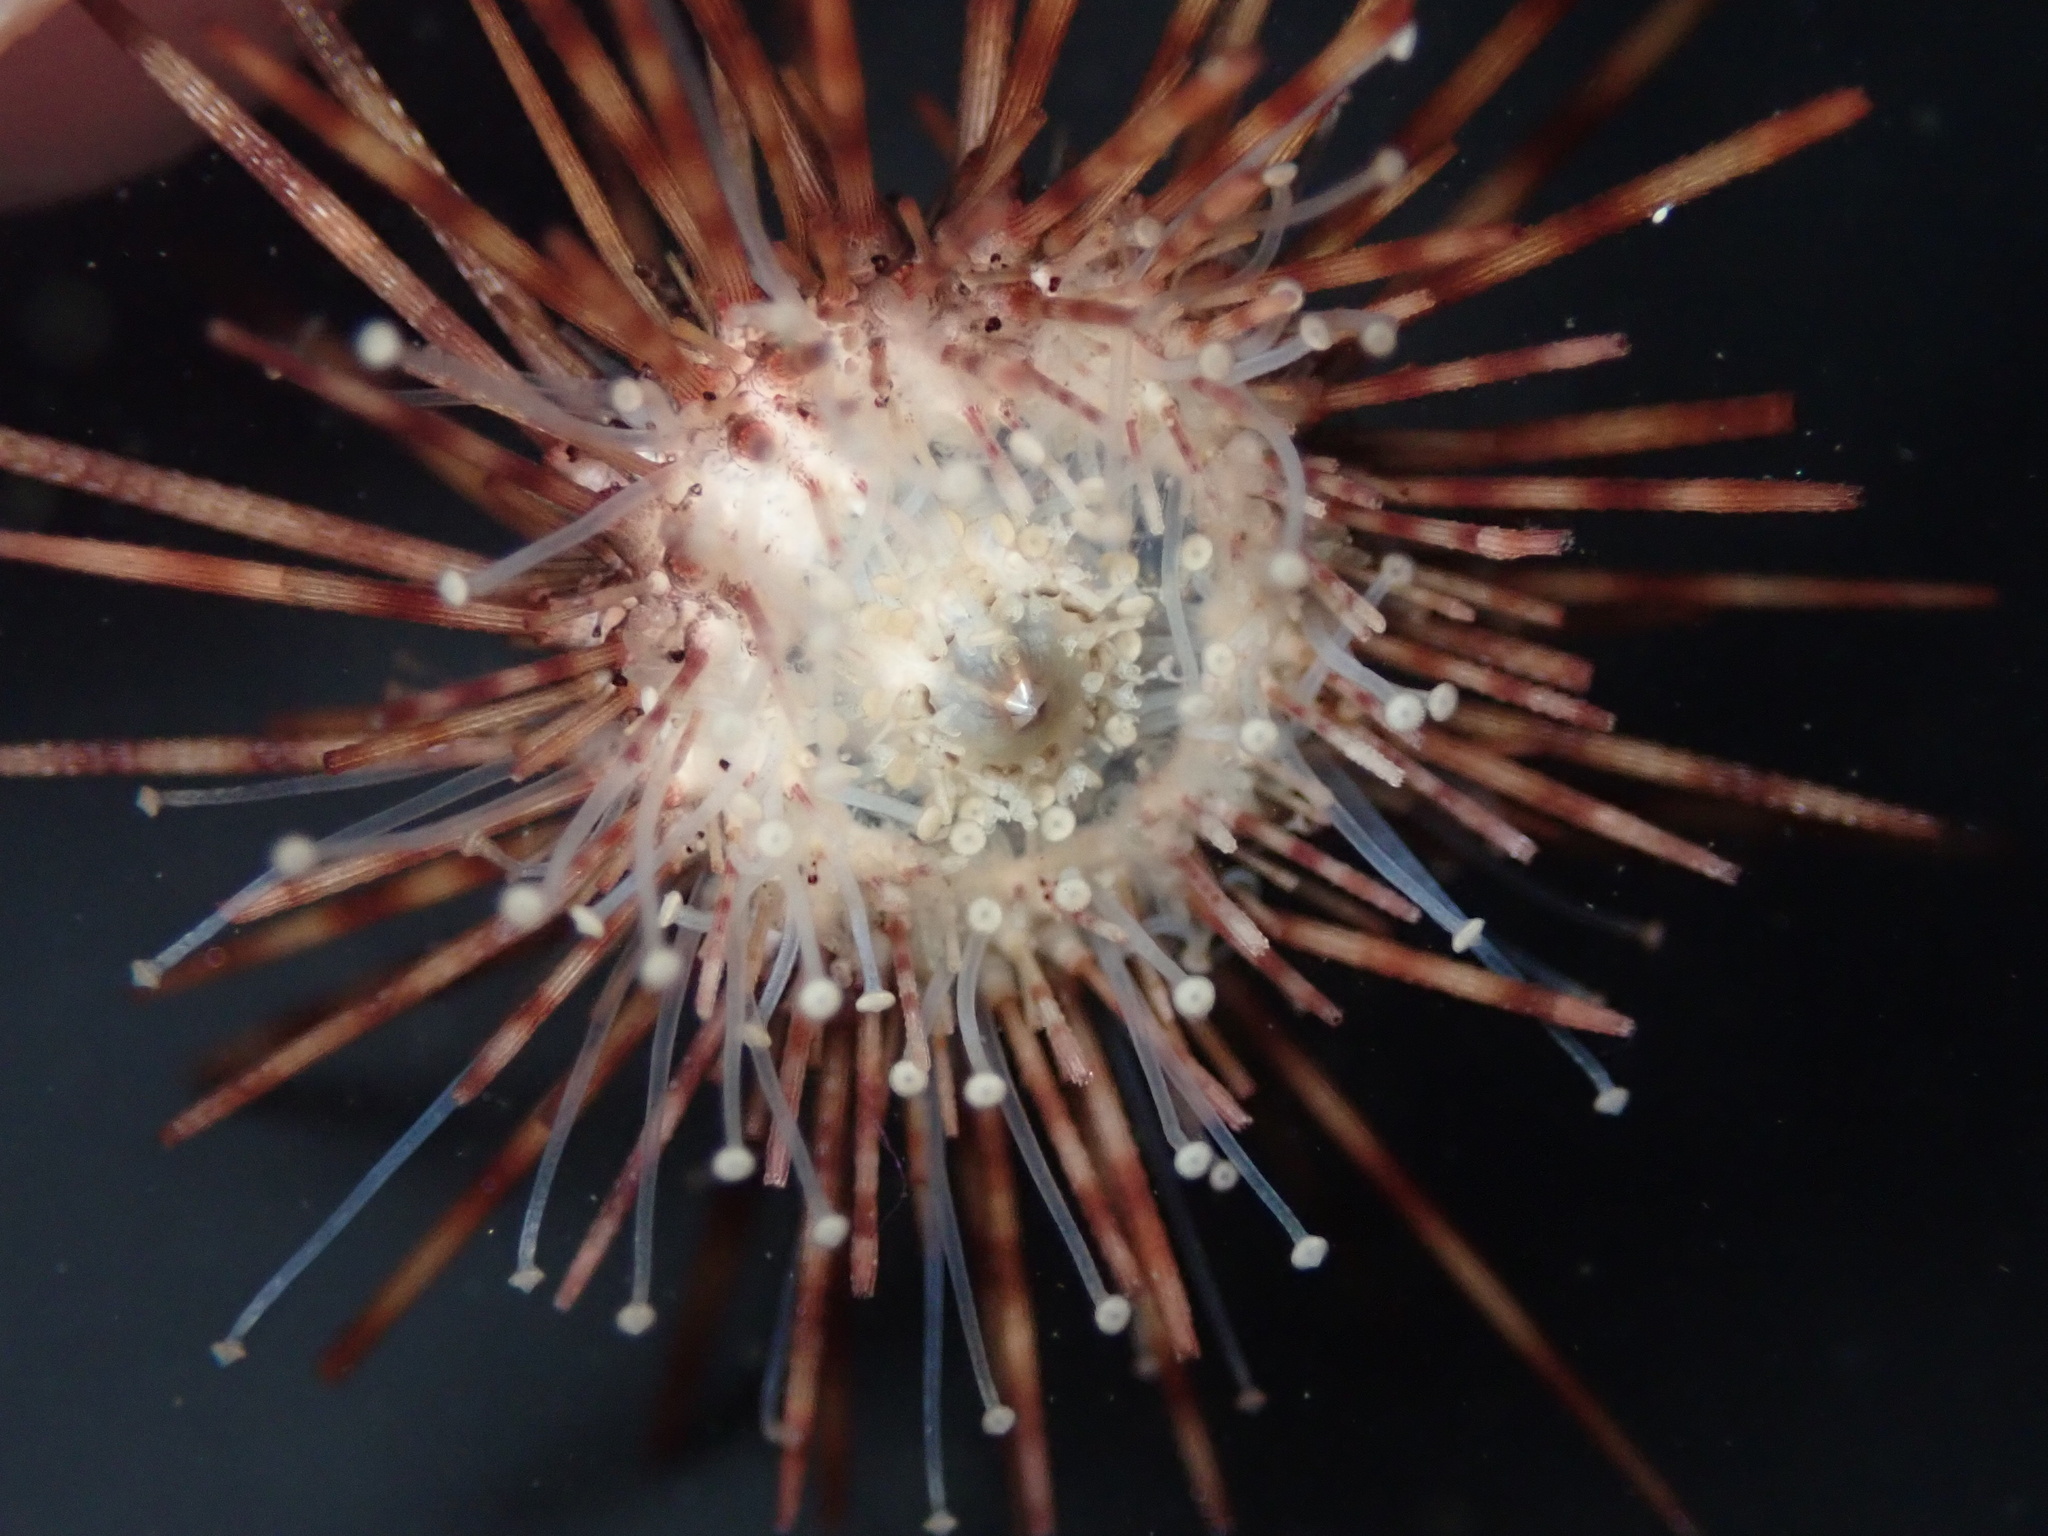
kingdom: Animalia
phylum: Echinodermata
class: Echinoidea
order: Diadematoida
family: Diadematidae
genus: Centrostephanus
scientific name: Centrostephanus coronatus
